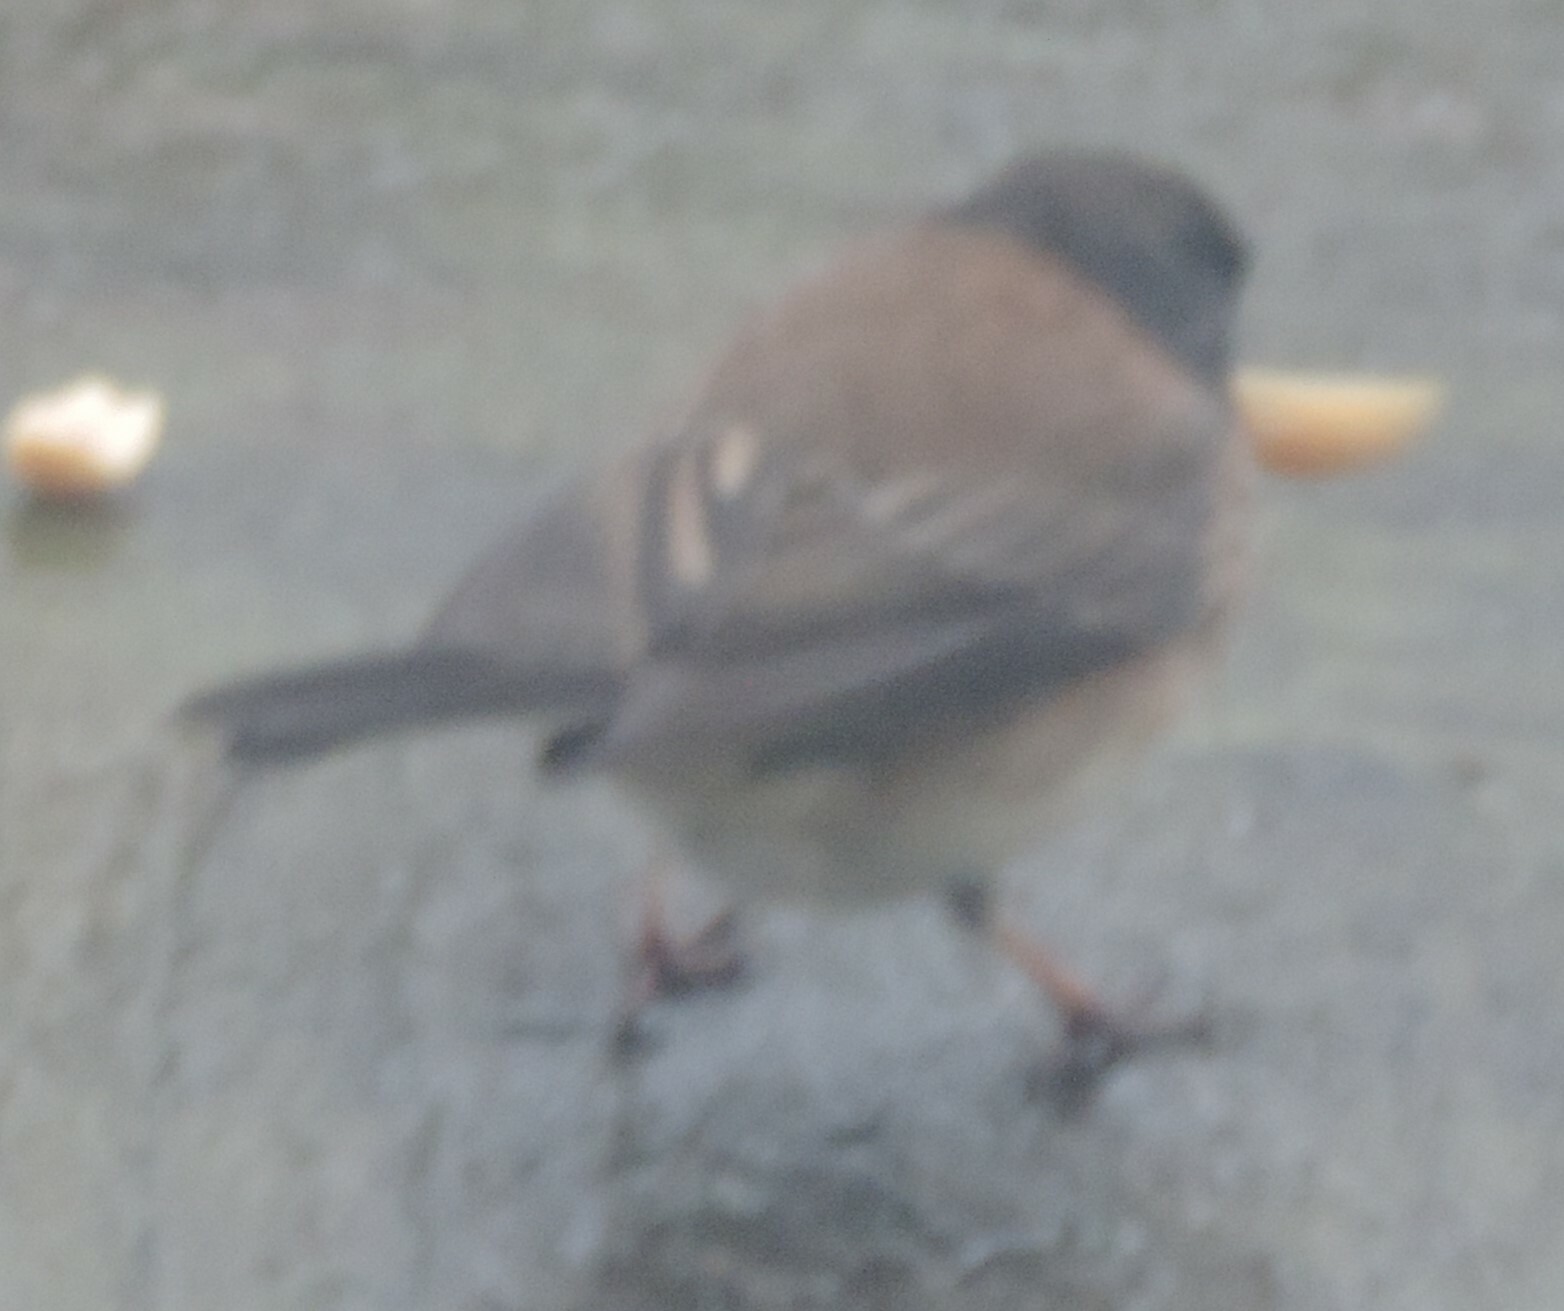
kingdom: Animalia
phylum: Chordata
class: Aves
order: Passeriformes
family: Passerellidae
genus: Junco
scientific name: Junco hyemalis
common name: Dark-eyed junco
